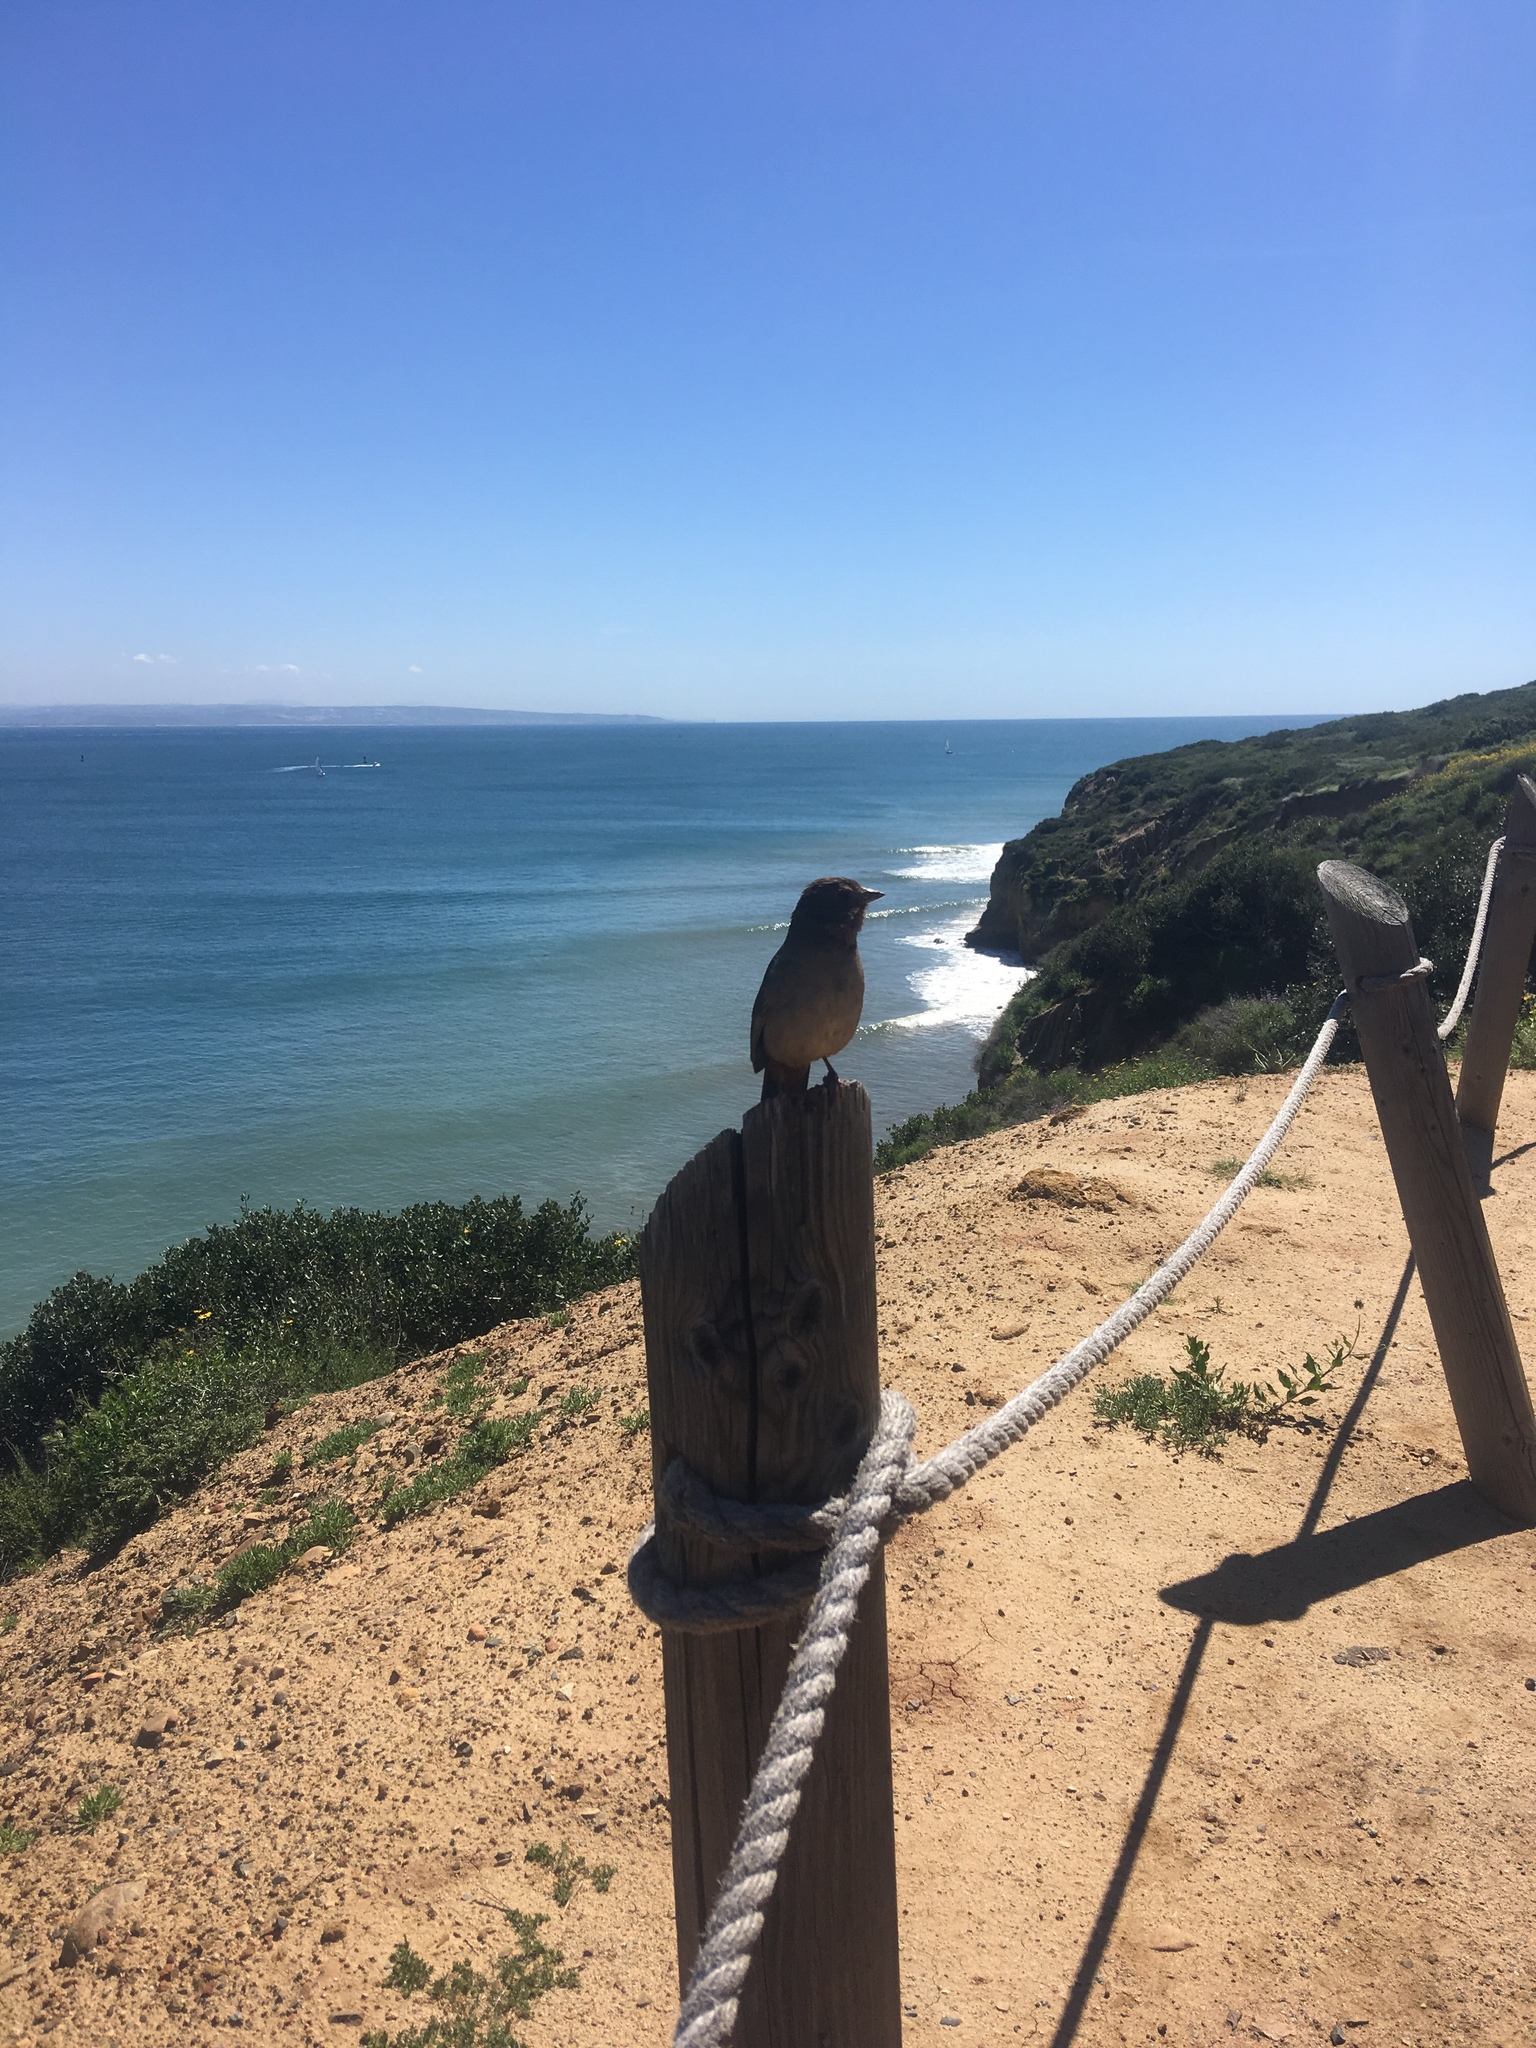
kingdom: Animalia
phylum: Chordata
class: Aves
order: Passeriformes
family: Passerellidae
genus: Melozone
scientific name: Melozone crissalis
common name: California towhee
